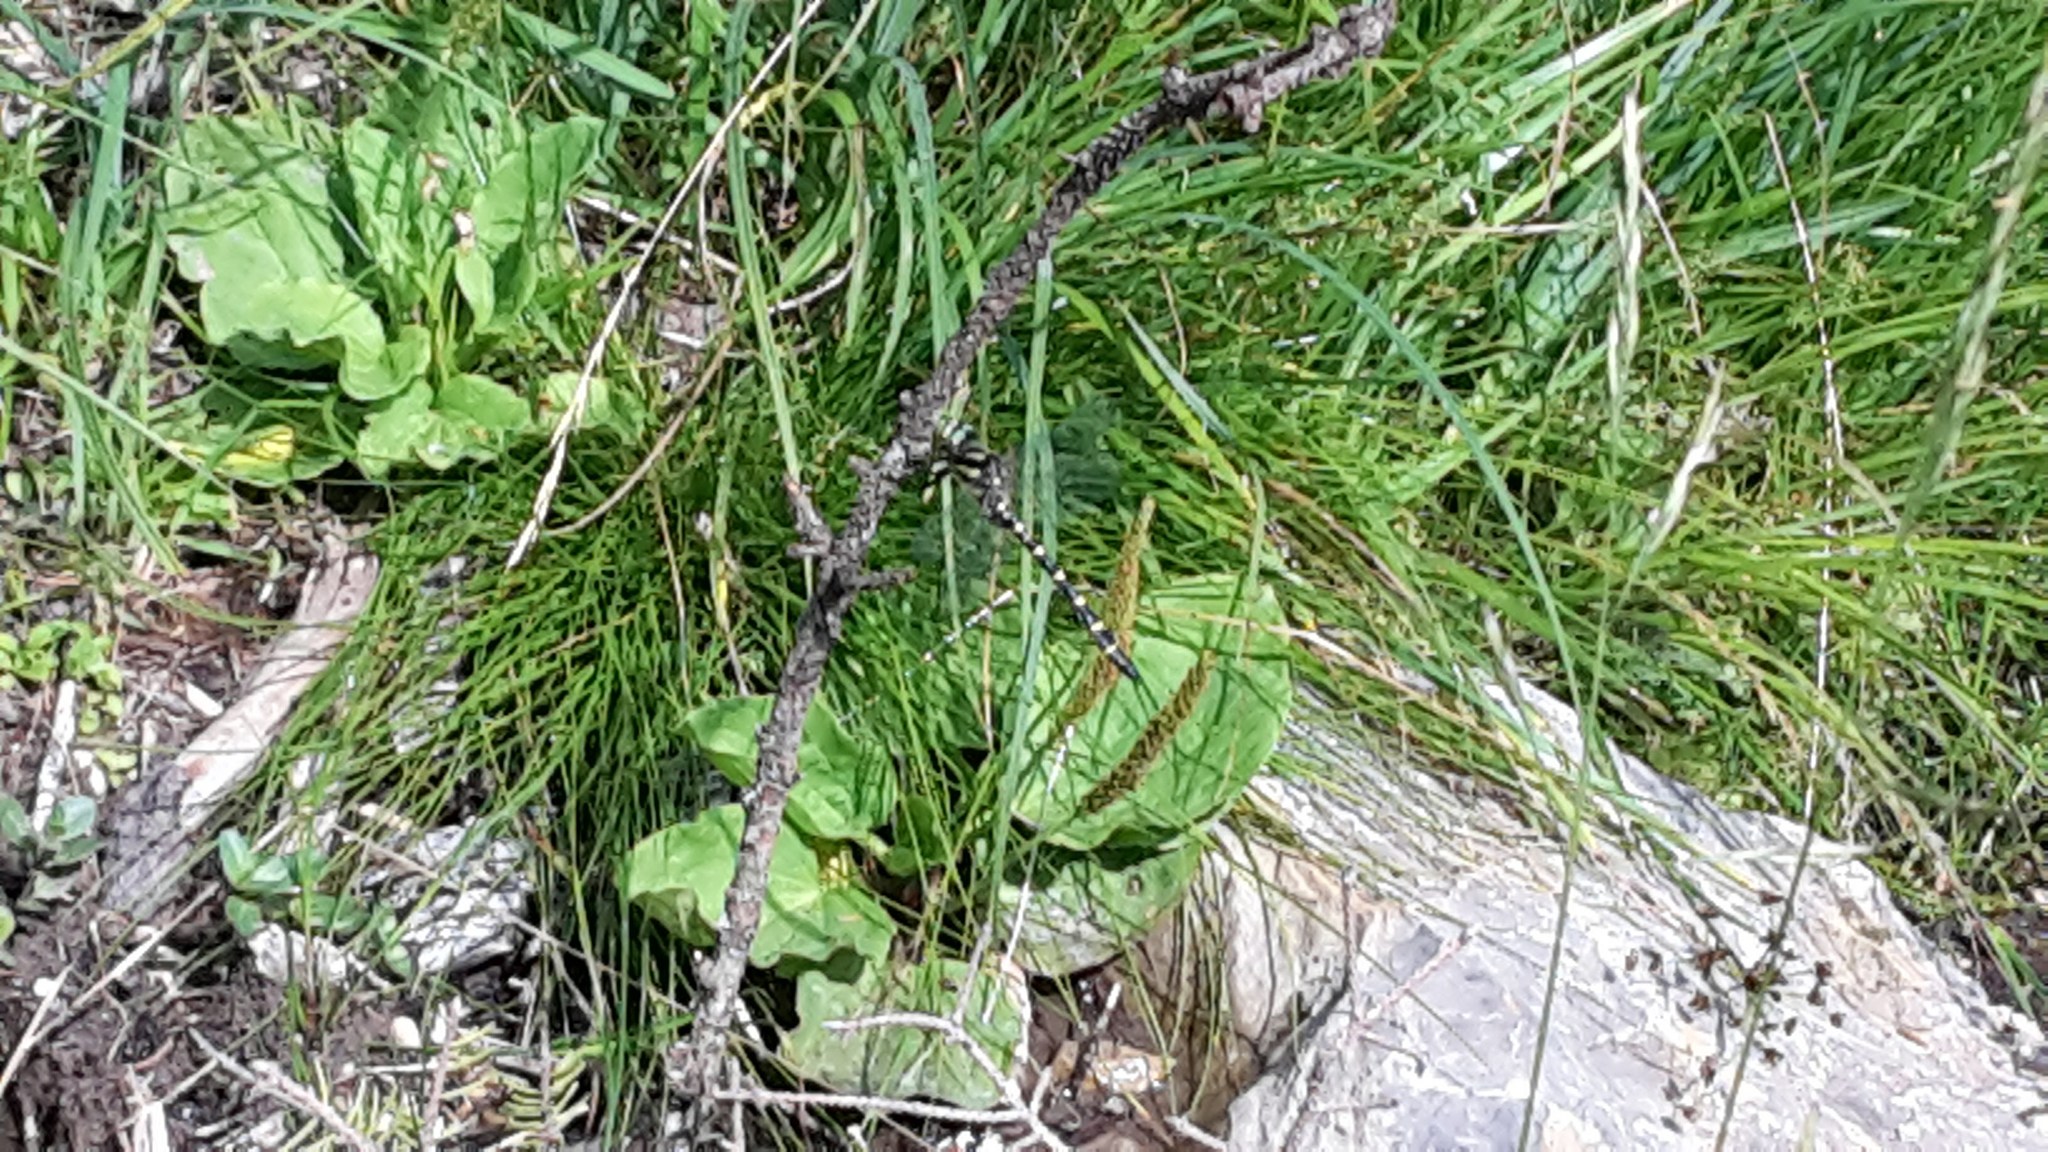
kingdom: Animalia
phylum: Arthropoda
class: Insecta
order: Odonata
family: Cordulegastridae
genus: Cordulegaster
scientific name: Cordulegaster
